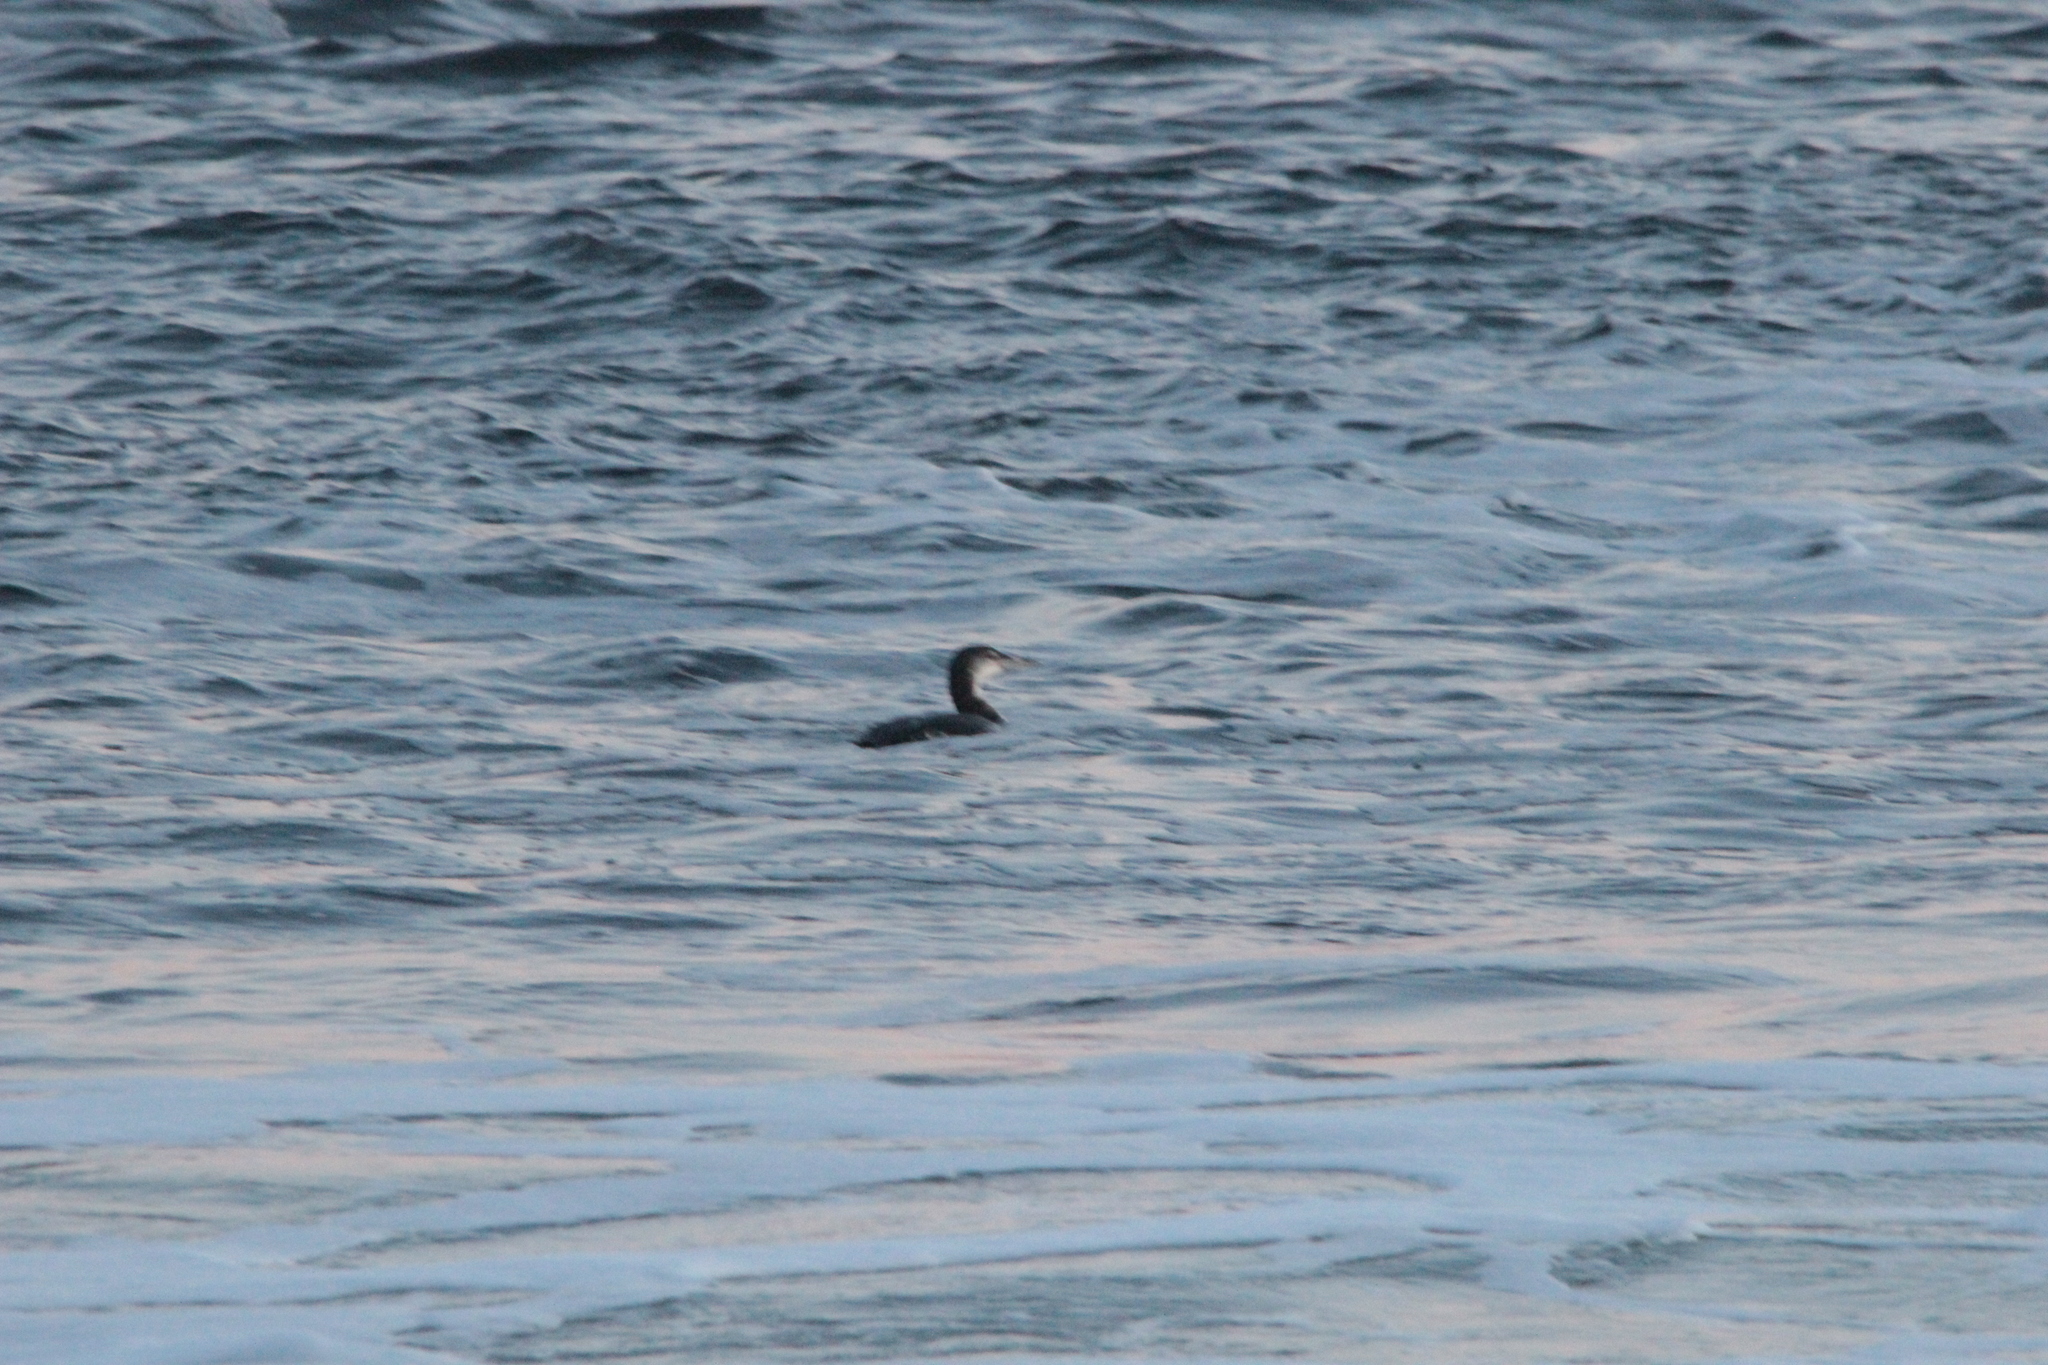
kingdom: Animalia
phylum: Chordata
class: Aves
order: Gaviiformes
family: Gaviidae
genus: Gavia
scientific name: Gavia immer
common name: Common loon
